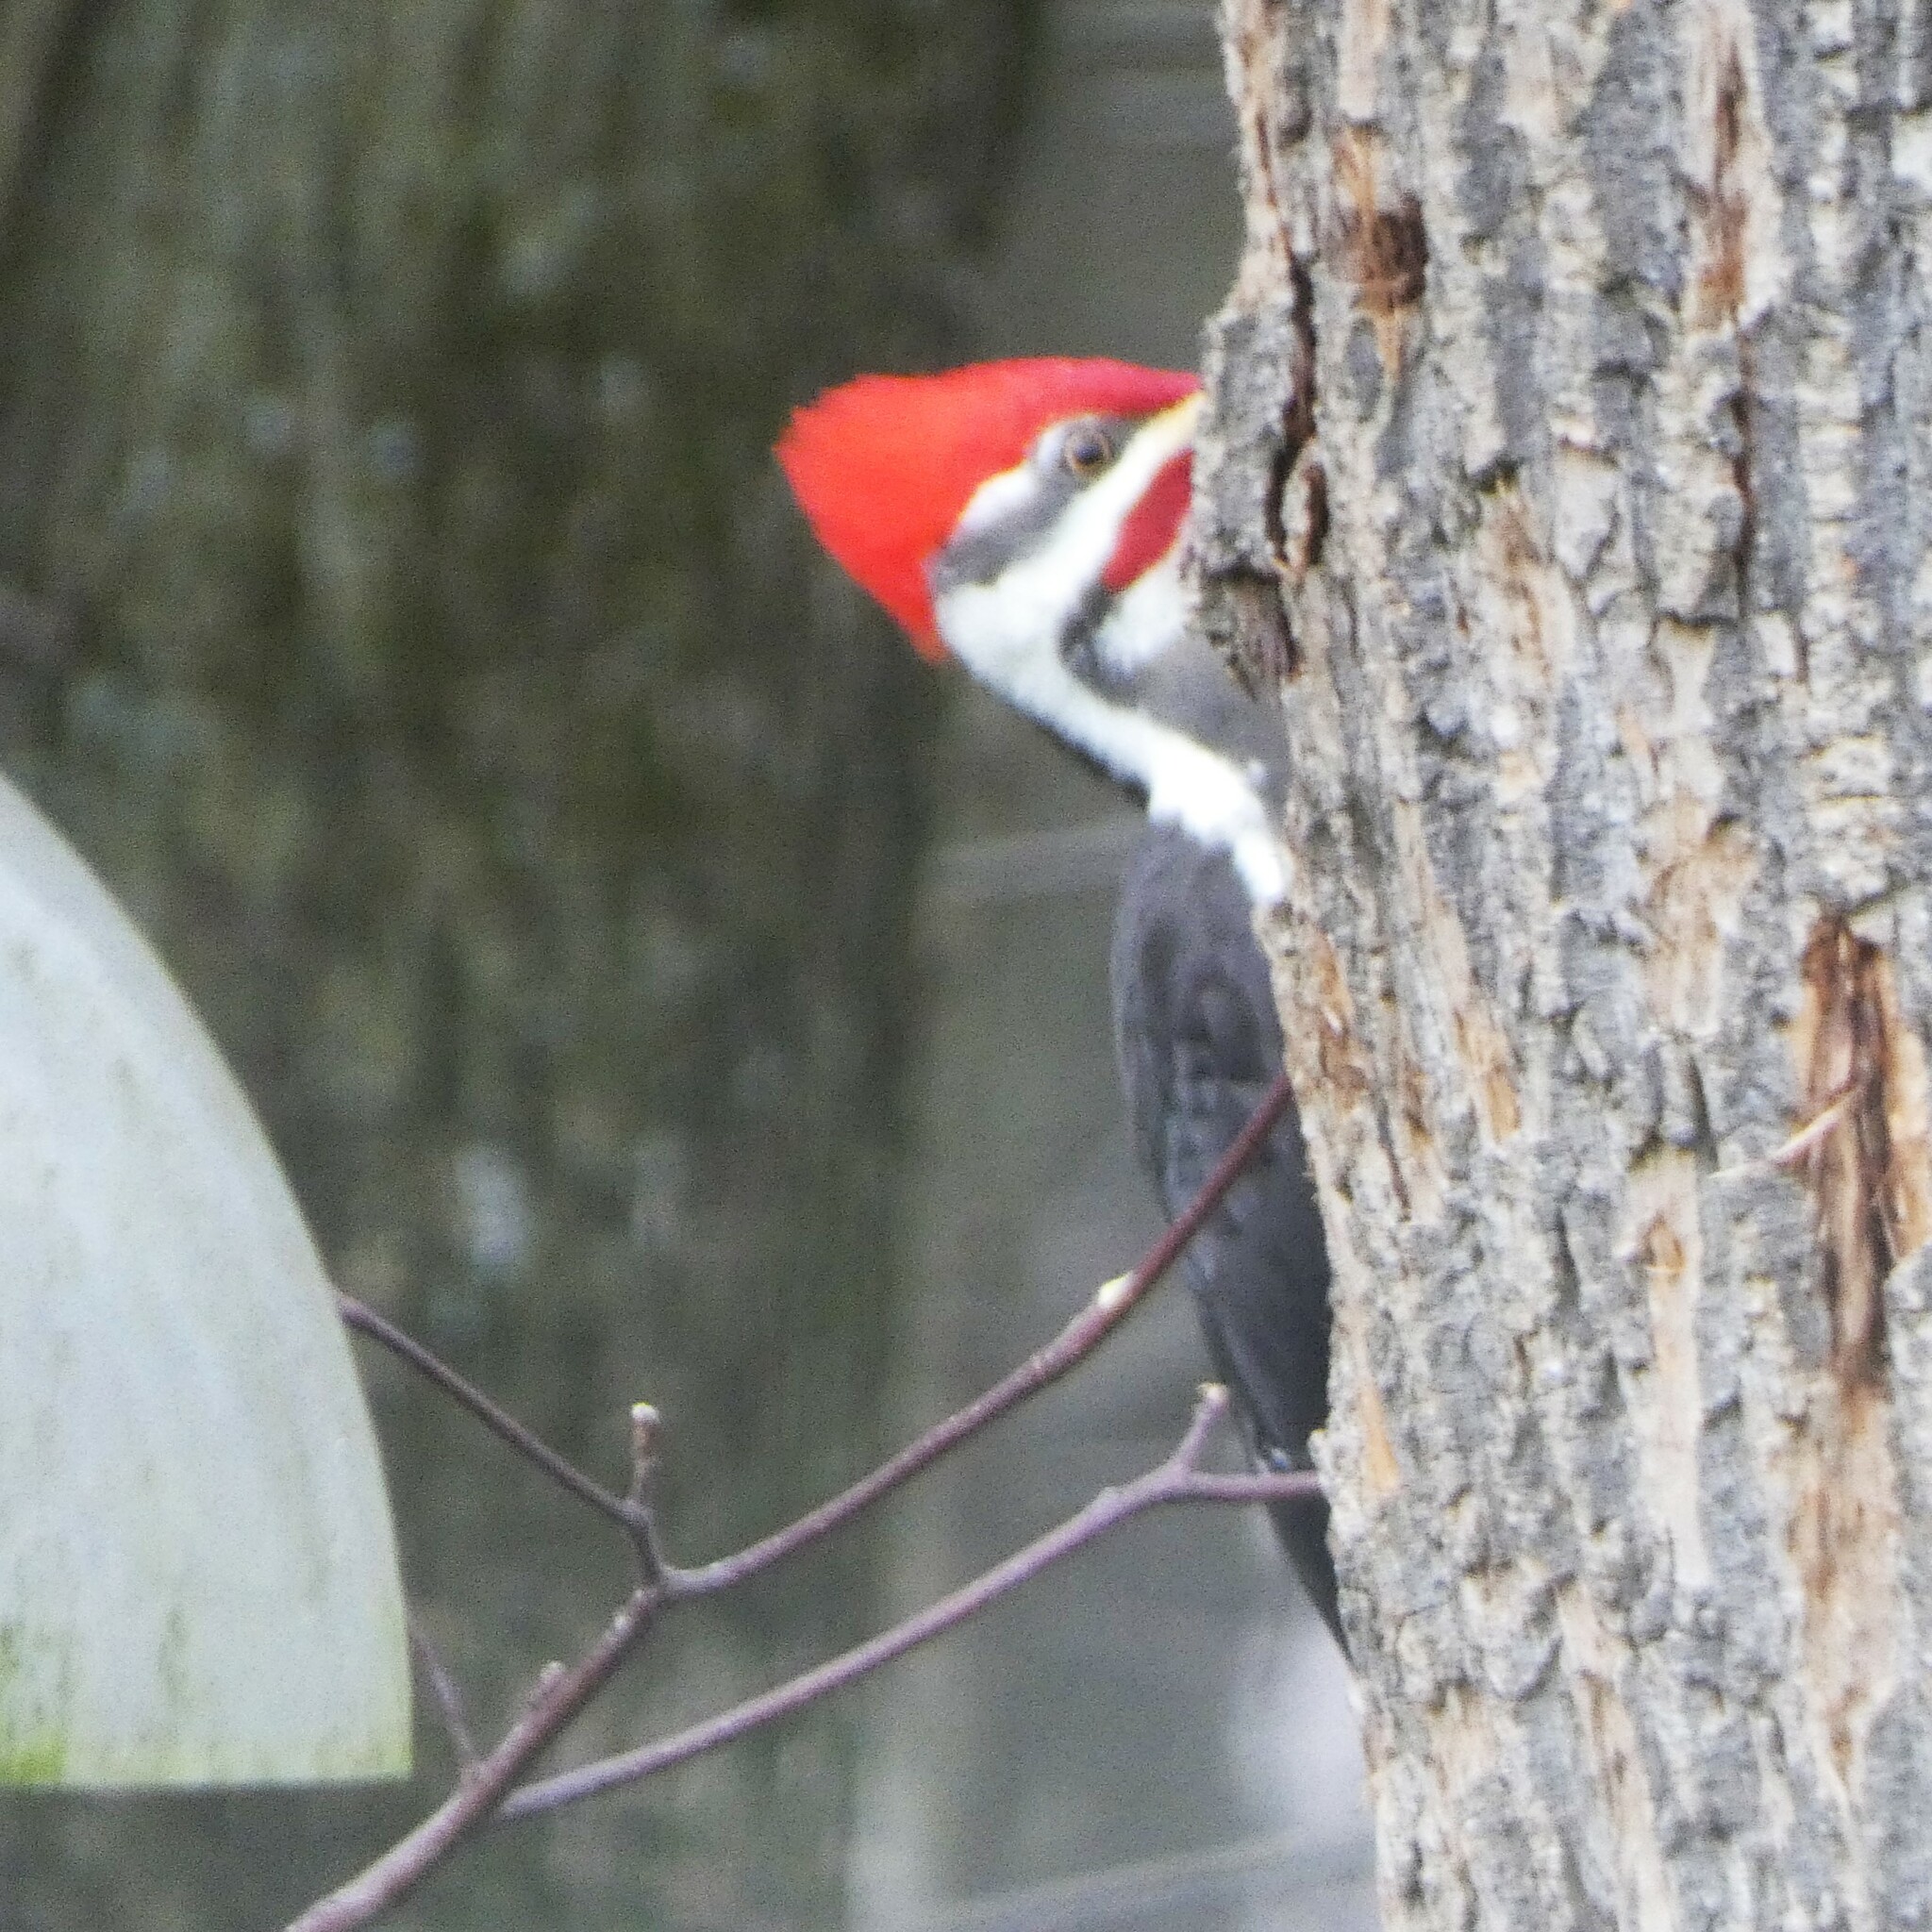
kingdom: Animalia
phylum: Chordata
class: Aves
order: Piciformes
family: Picidae
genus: Dryocopus
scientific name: Dryocopus pileatus
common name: Pileated woodpecker
